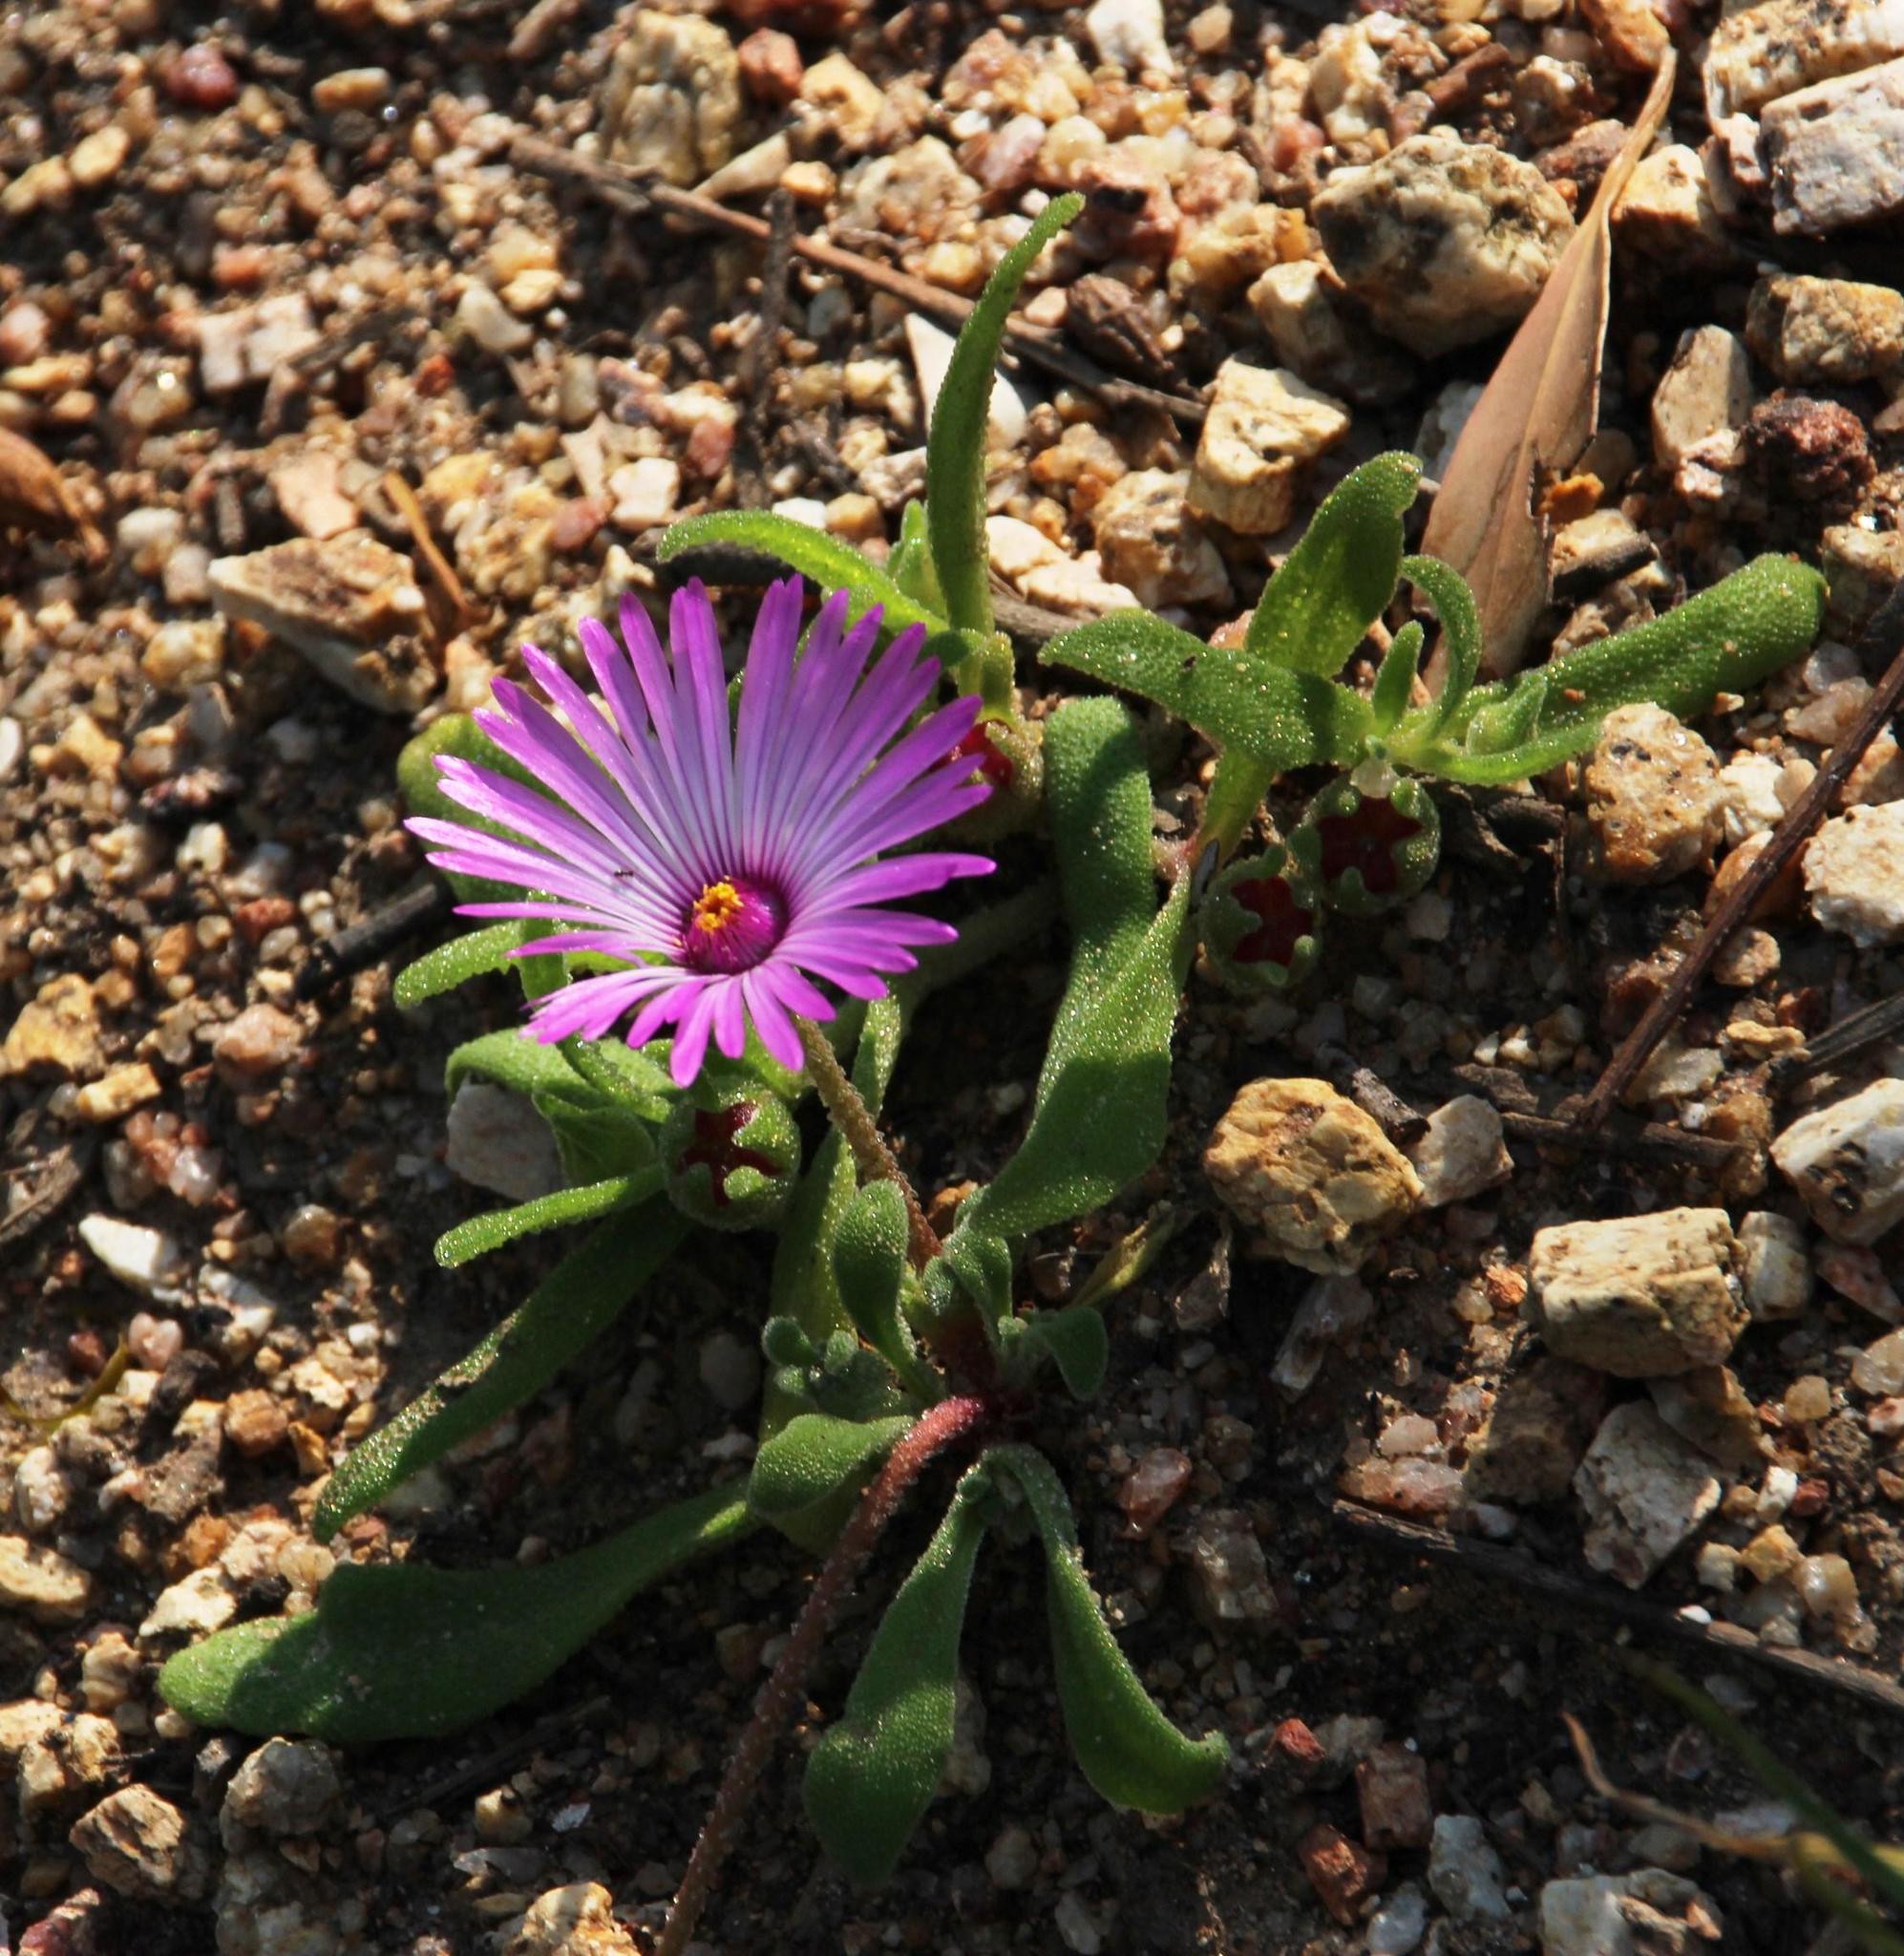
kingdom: Plantae
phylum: Tracheophyta
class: Magnoliopsida
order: Caryophyllales
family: Aizoaceae
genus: Cleretum
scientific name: Cleretum bellidiforme
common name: Livingstone daisy
